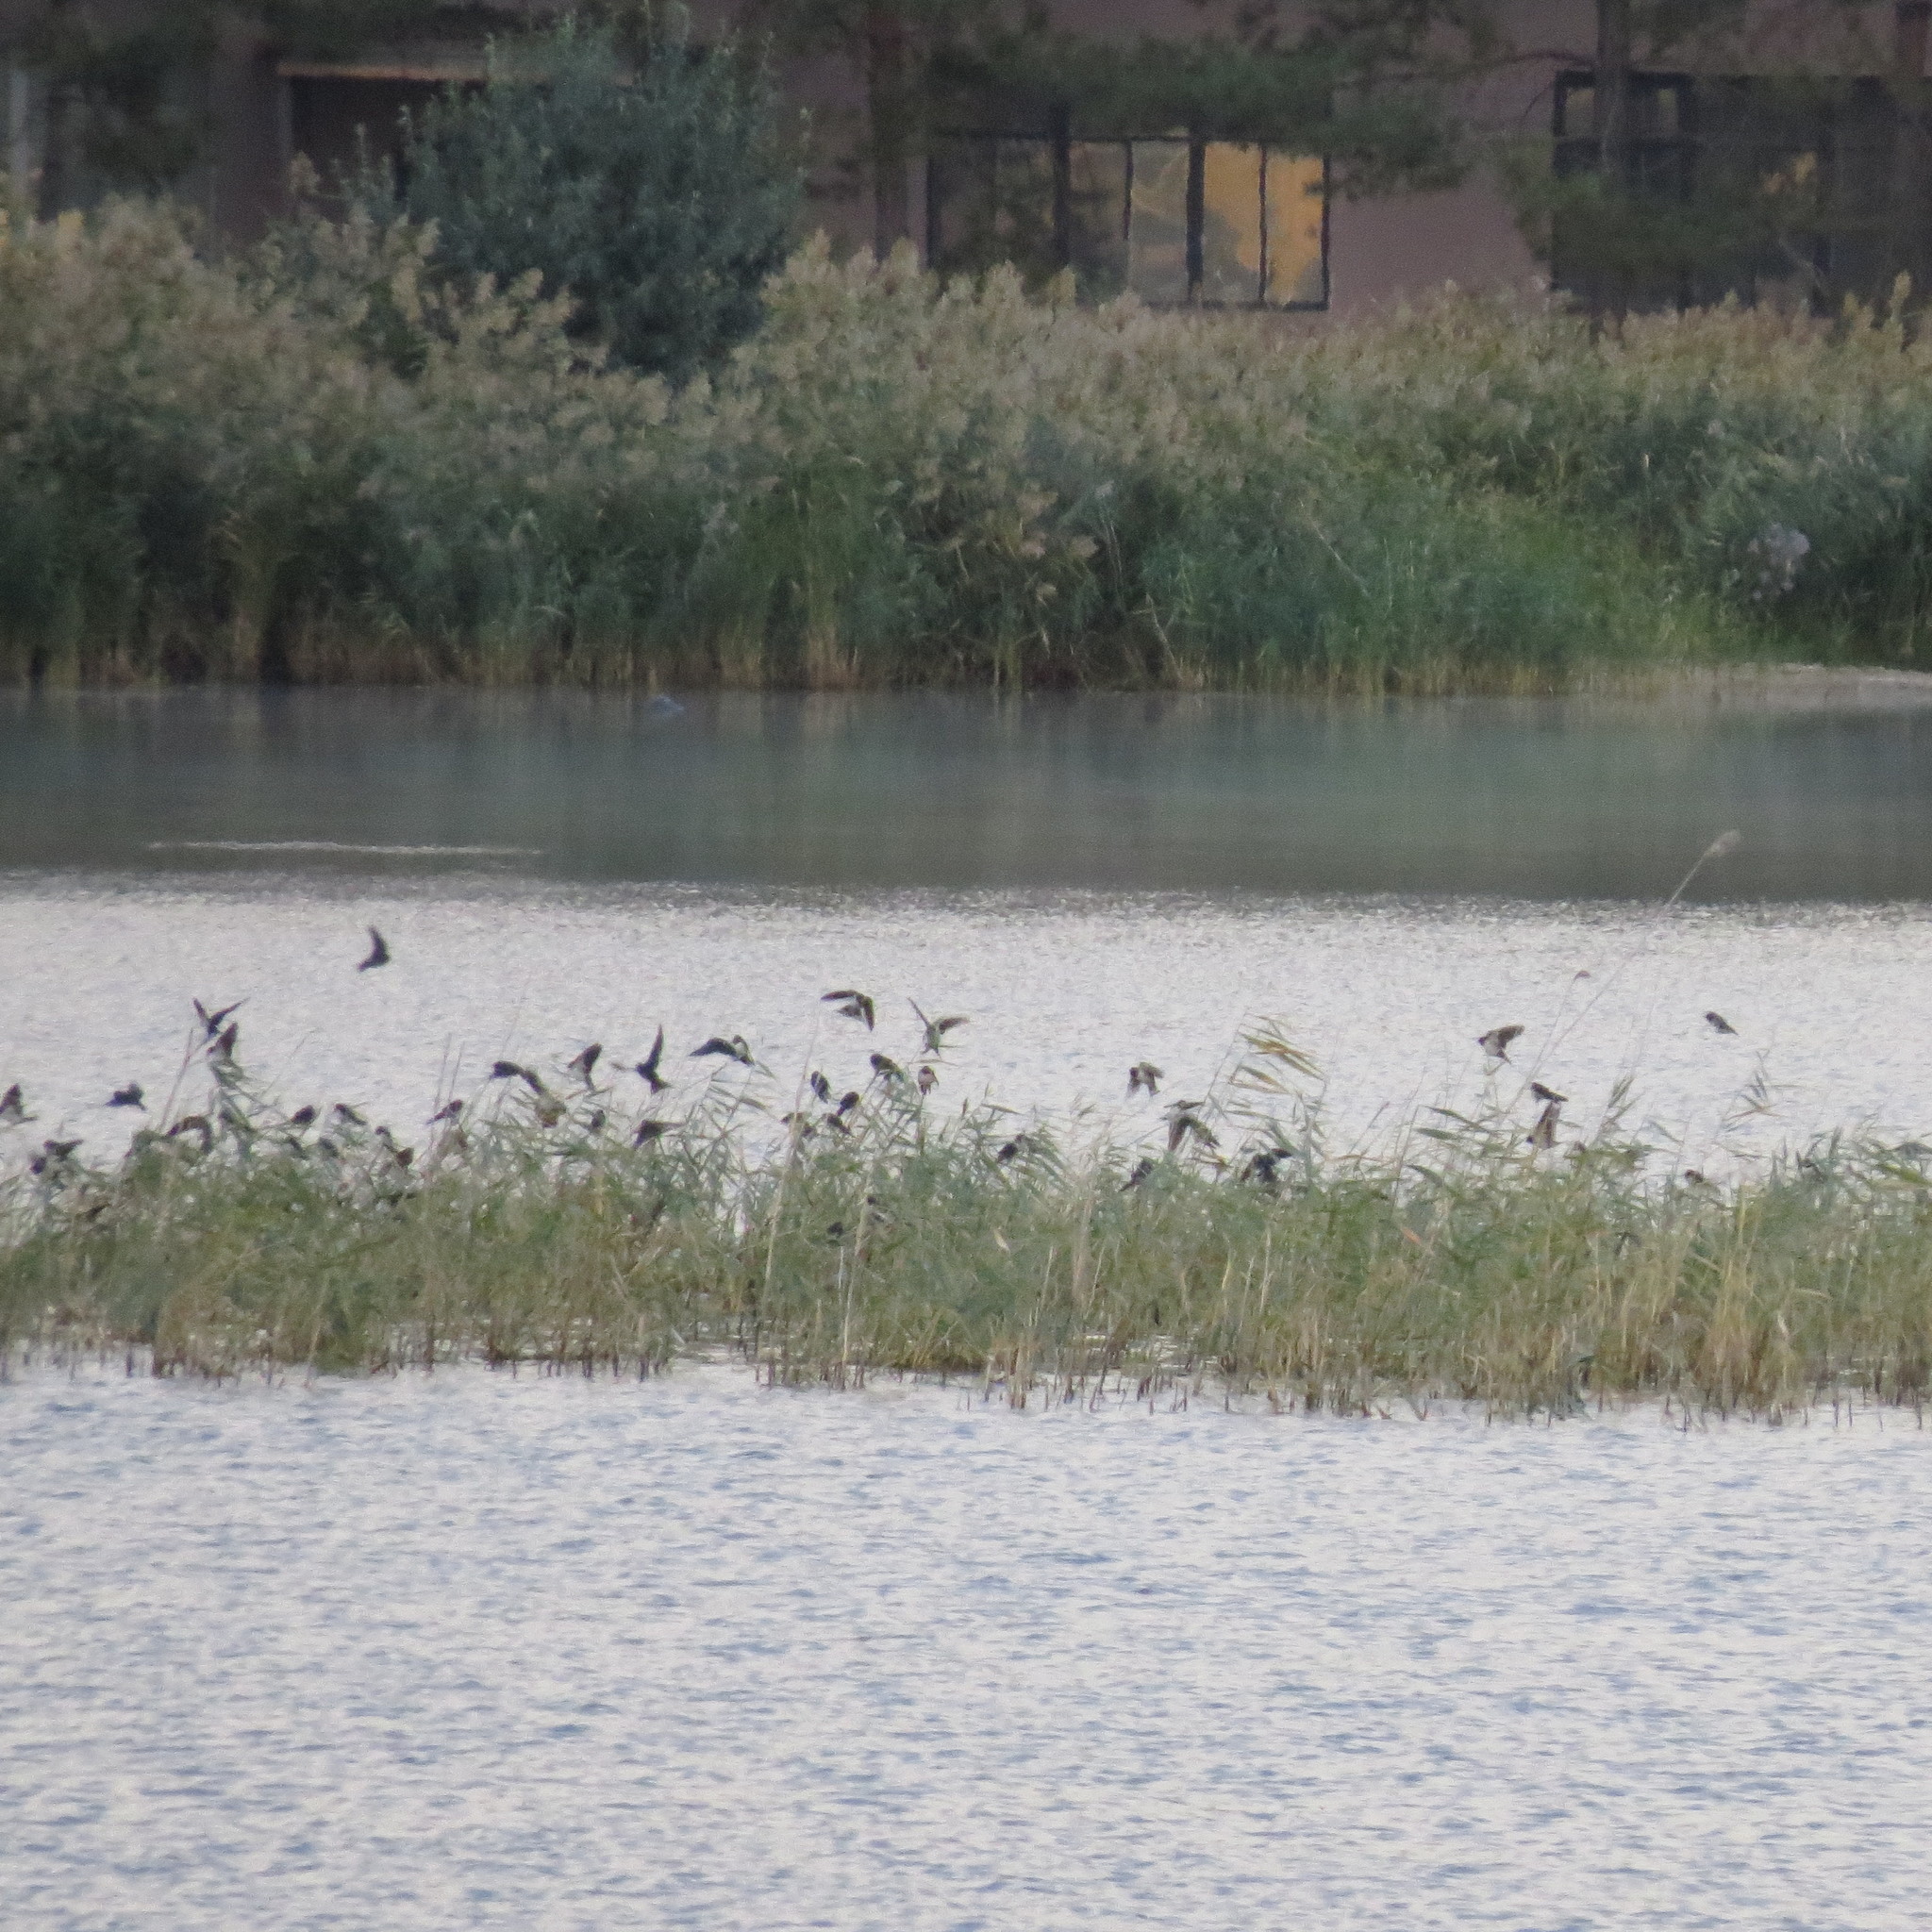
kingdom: Animalia
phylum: Chordata
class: Aves
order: Passeriformes
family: Hirundinidae
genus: Hirundo
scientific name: Hirundo rustica
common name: Barn swallow
